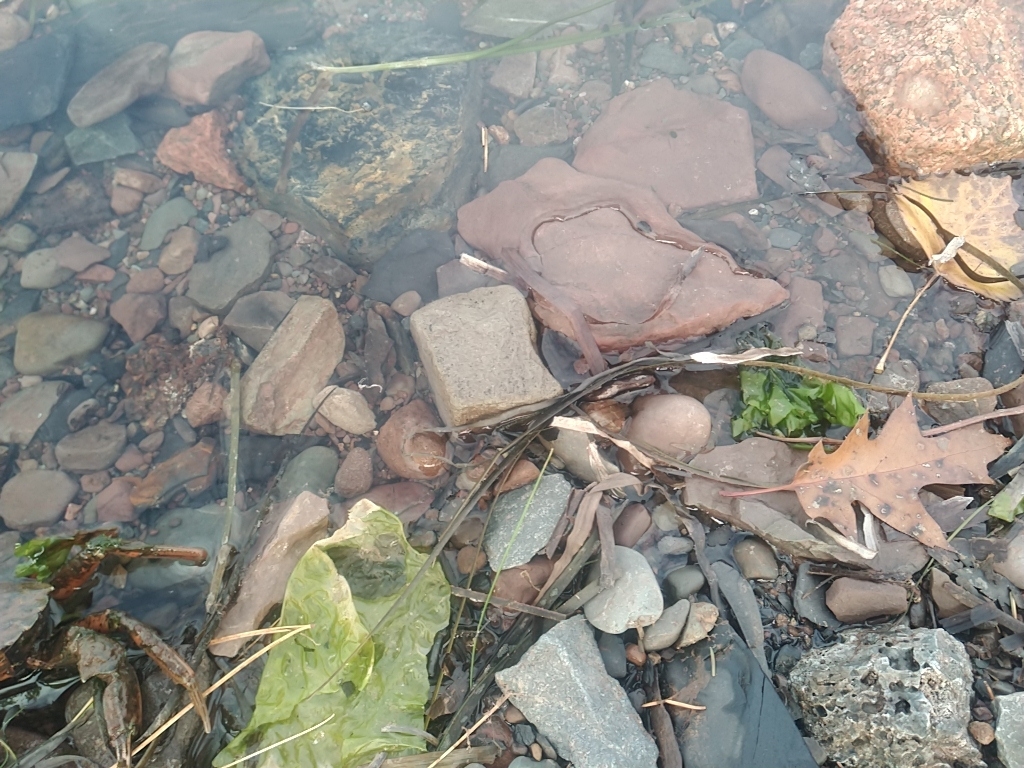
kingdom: Plantae
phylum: Chlorophyta
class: Ulvophyceae
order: Ulvales
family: Ulvaceae
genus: Ulva
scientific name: Ulva lactuca
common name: Sea lettuce
